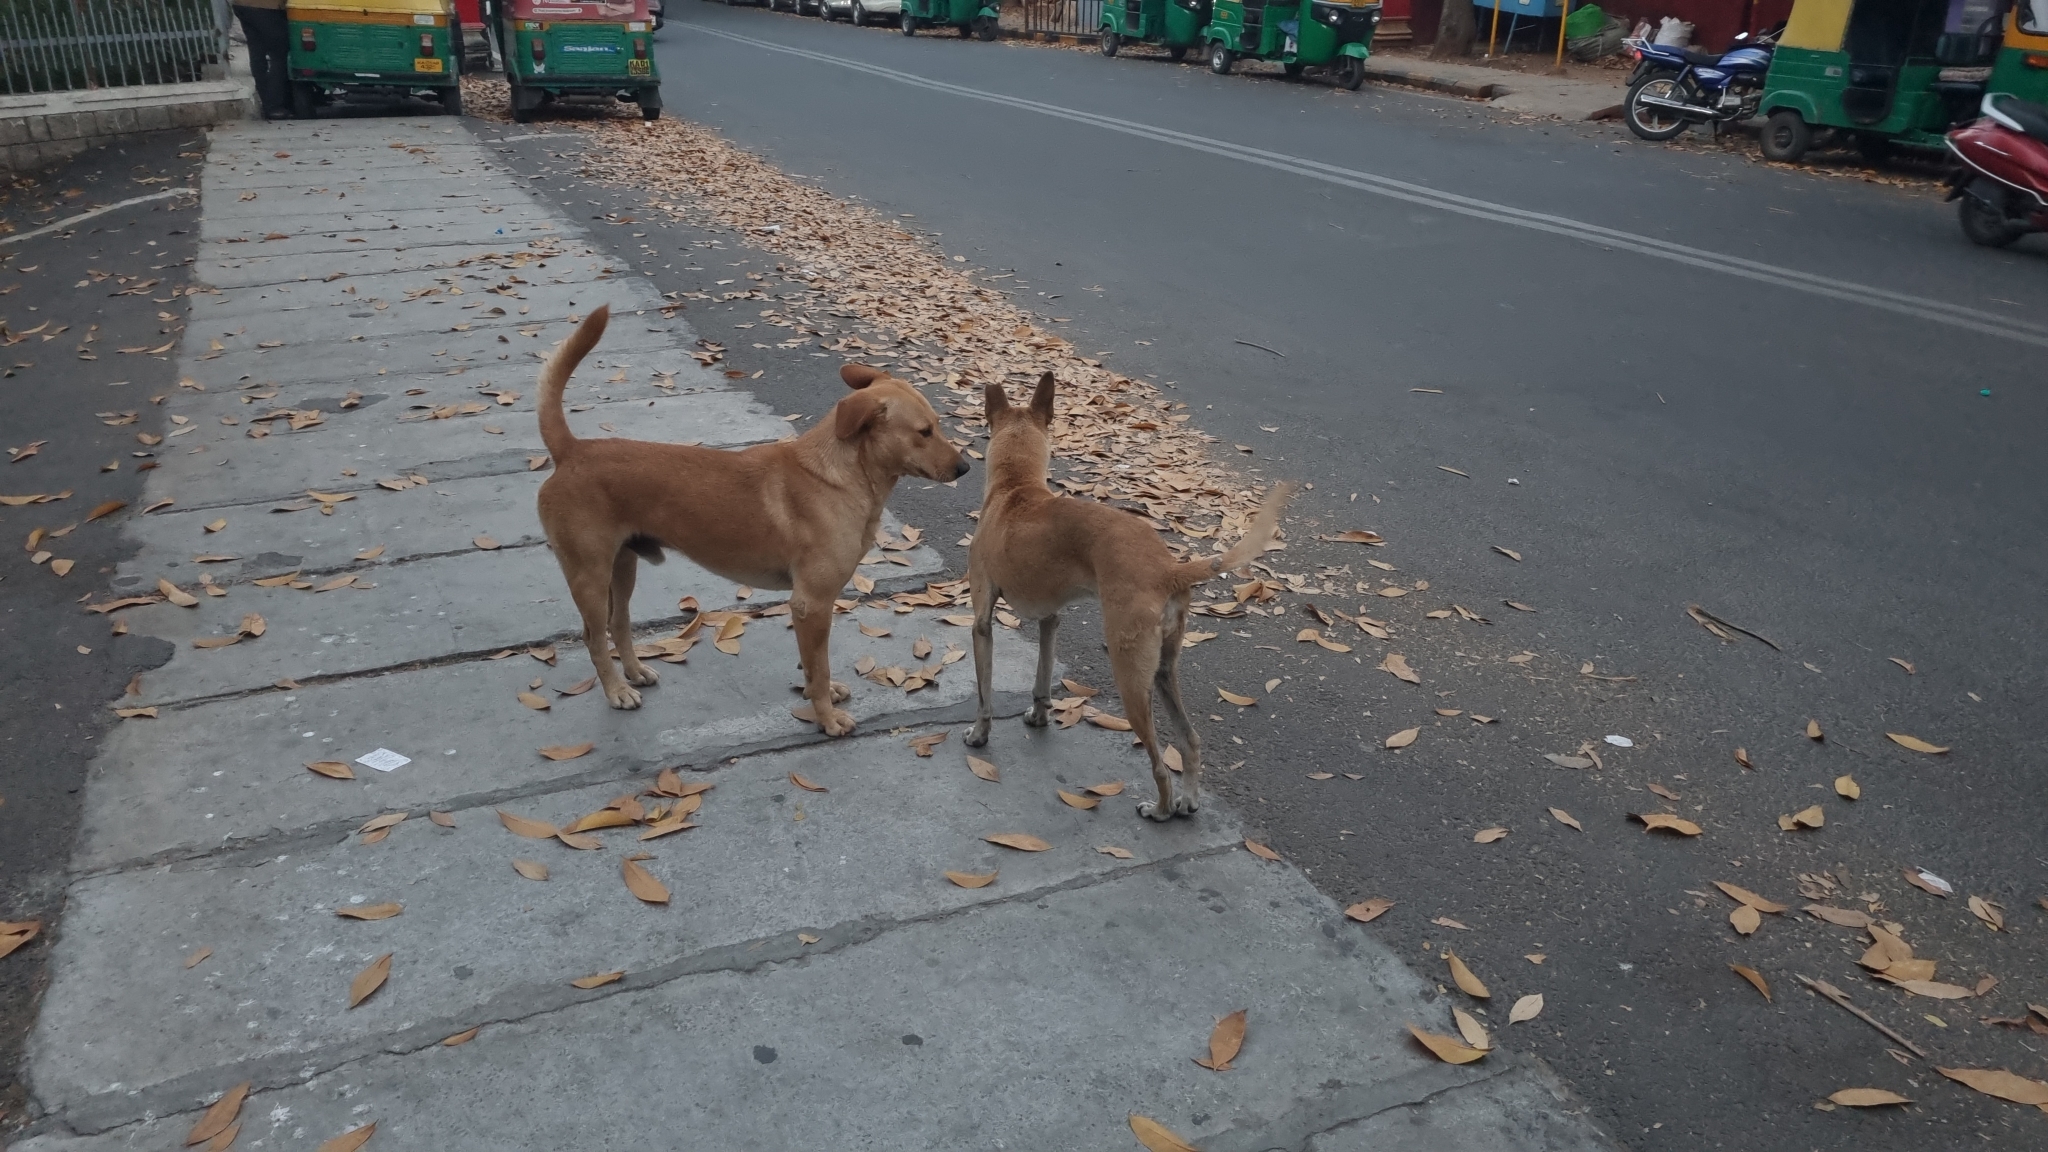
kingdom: Animalia
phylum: Chordata
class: Mammalia
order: Carnivora
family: Canidae
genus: Canis
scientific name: Canis lupus
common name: Gray wolf
